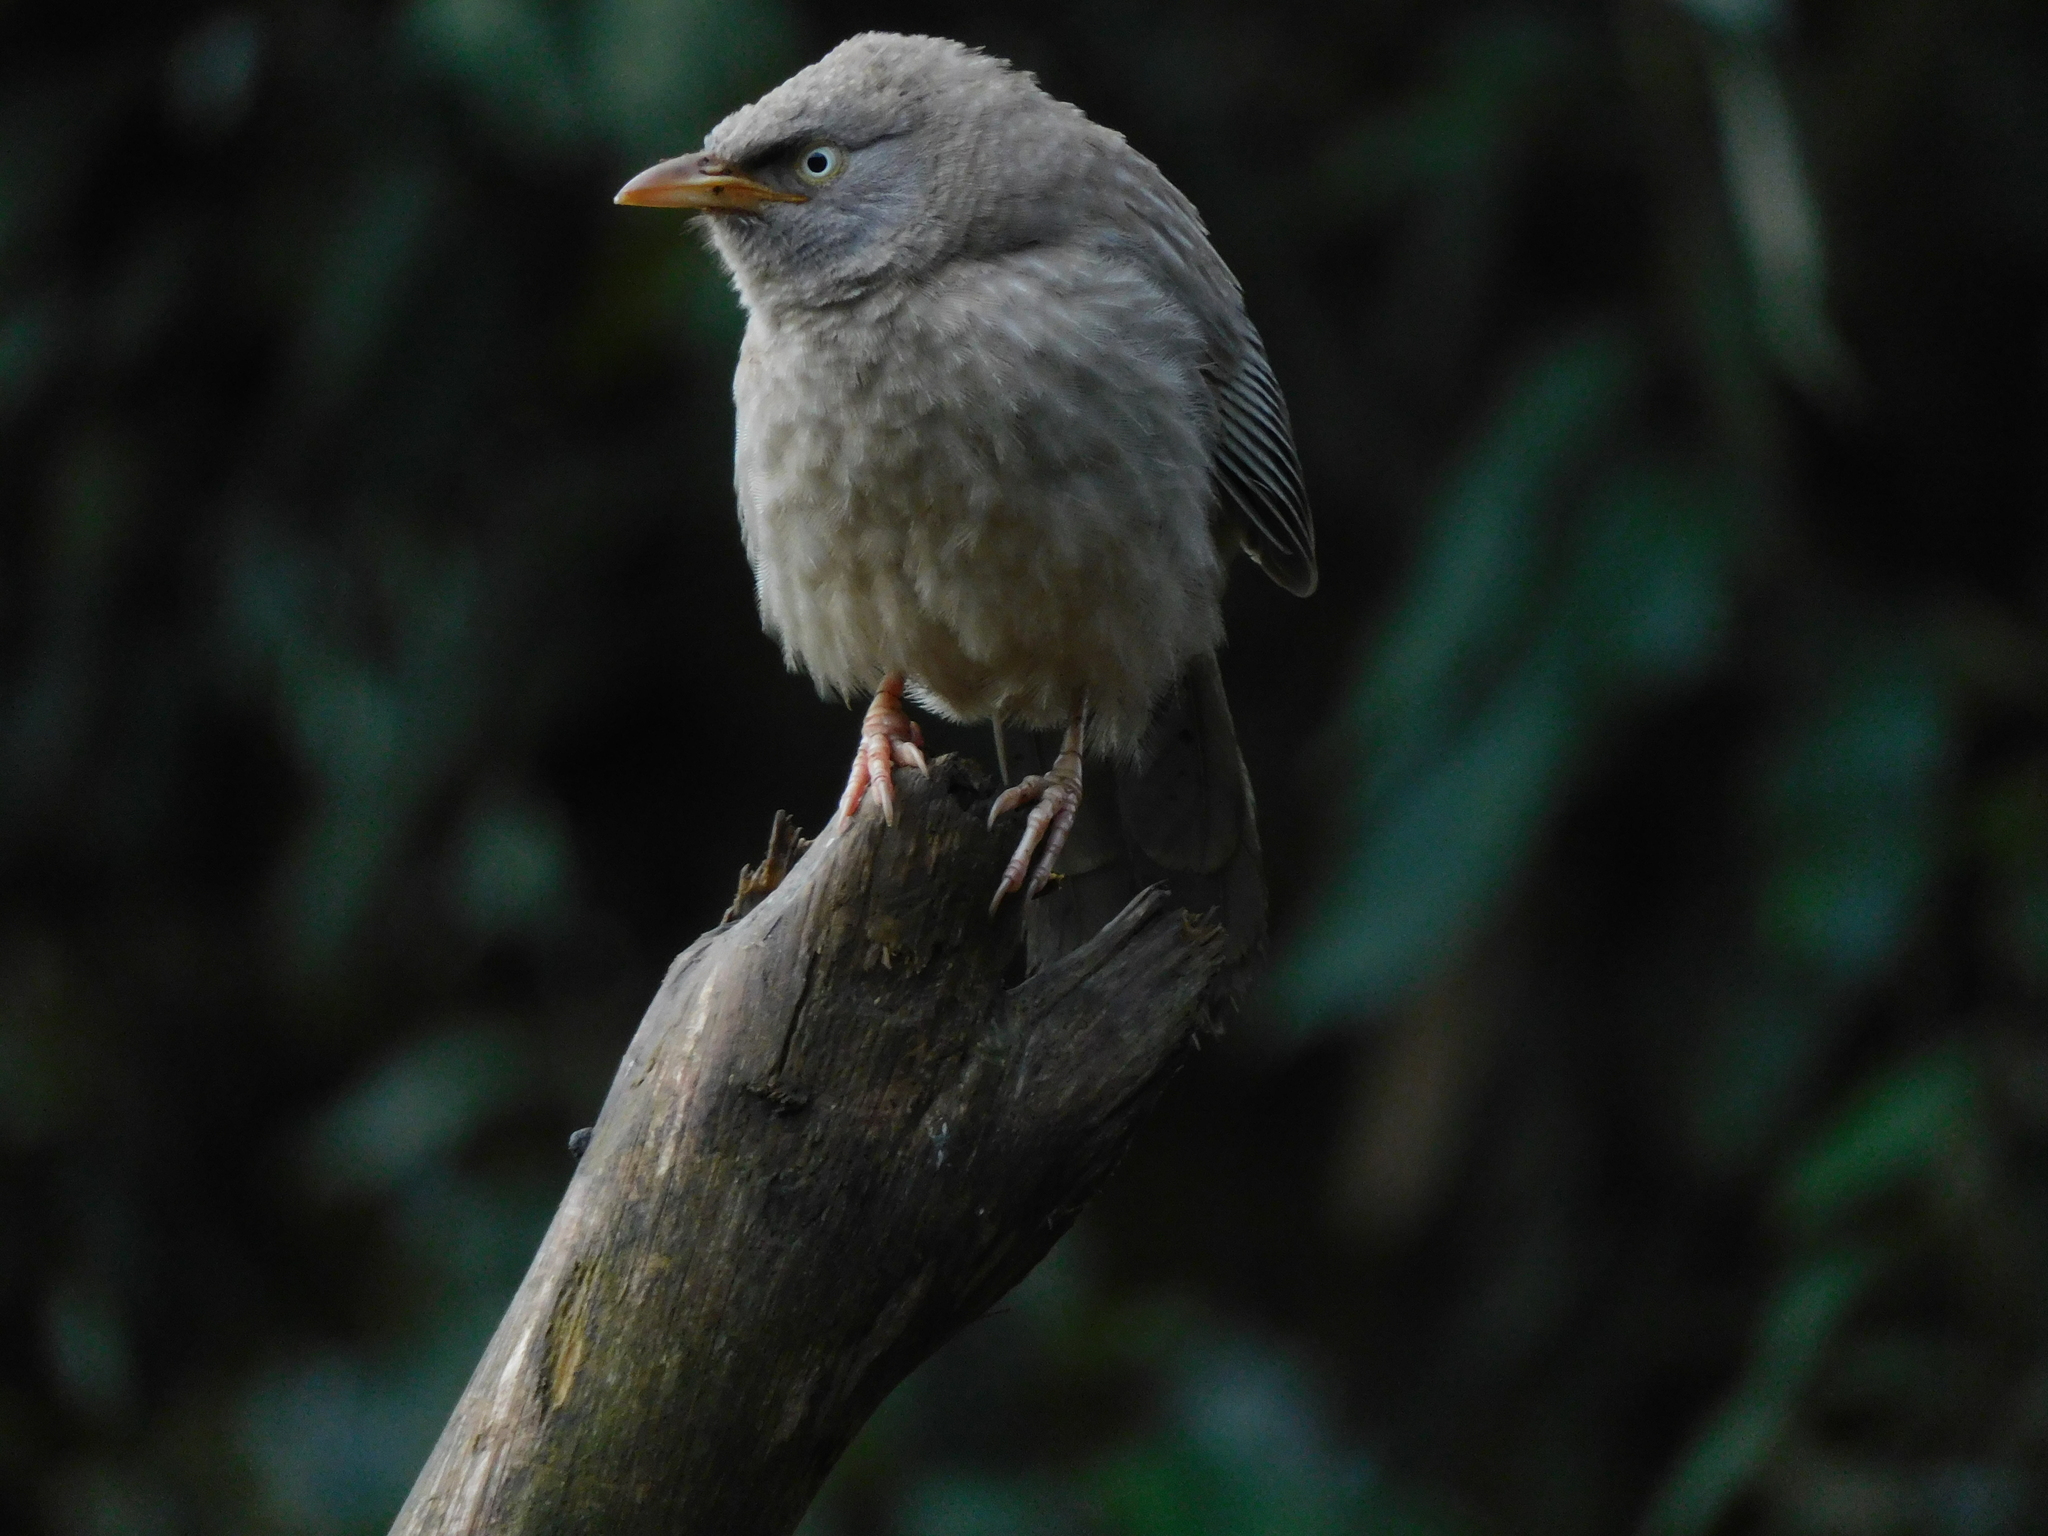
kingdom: Animalia
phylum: Chordata
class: Aves
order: Passeriformes
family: Leiothrichidae
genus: Turdoides
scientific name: Turdoides striata
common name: Jungle babbler
